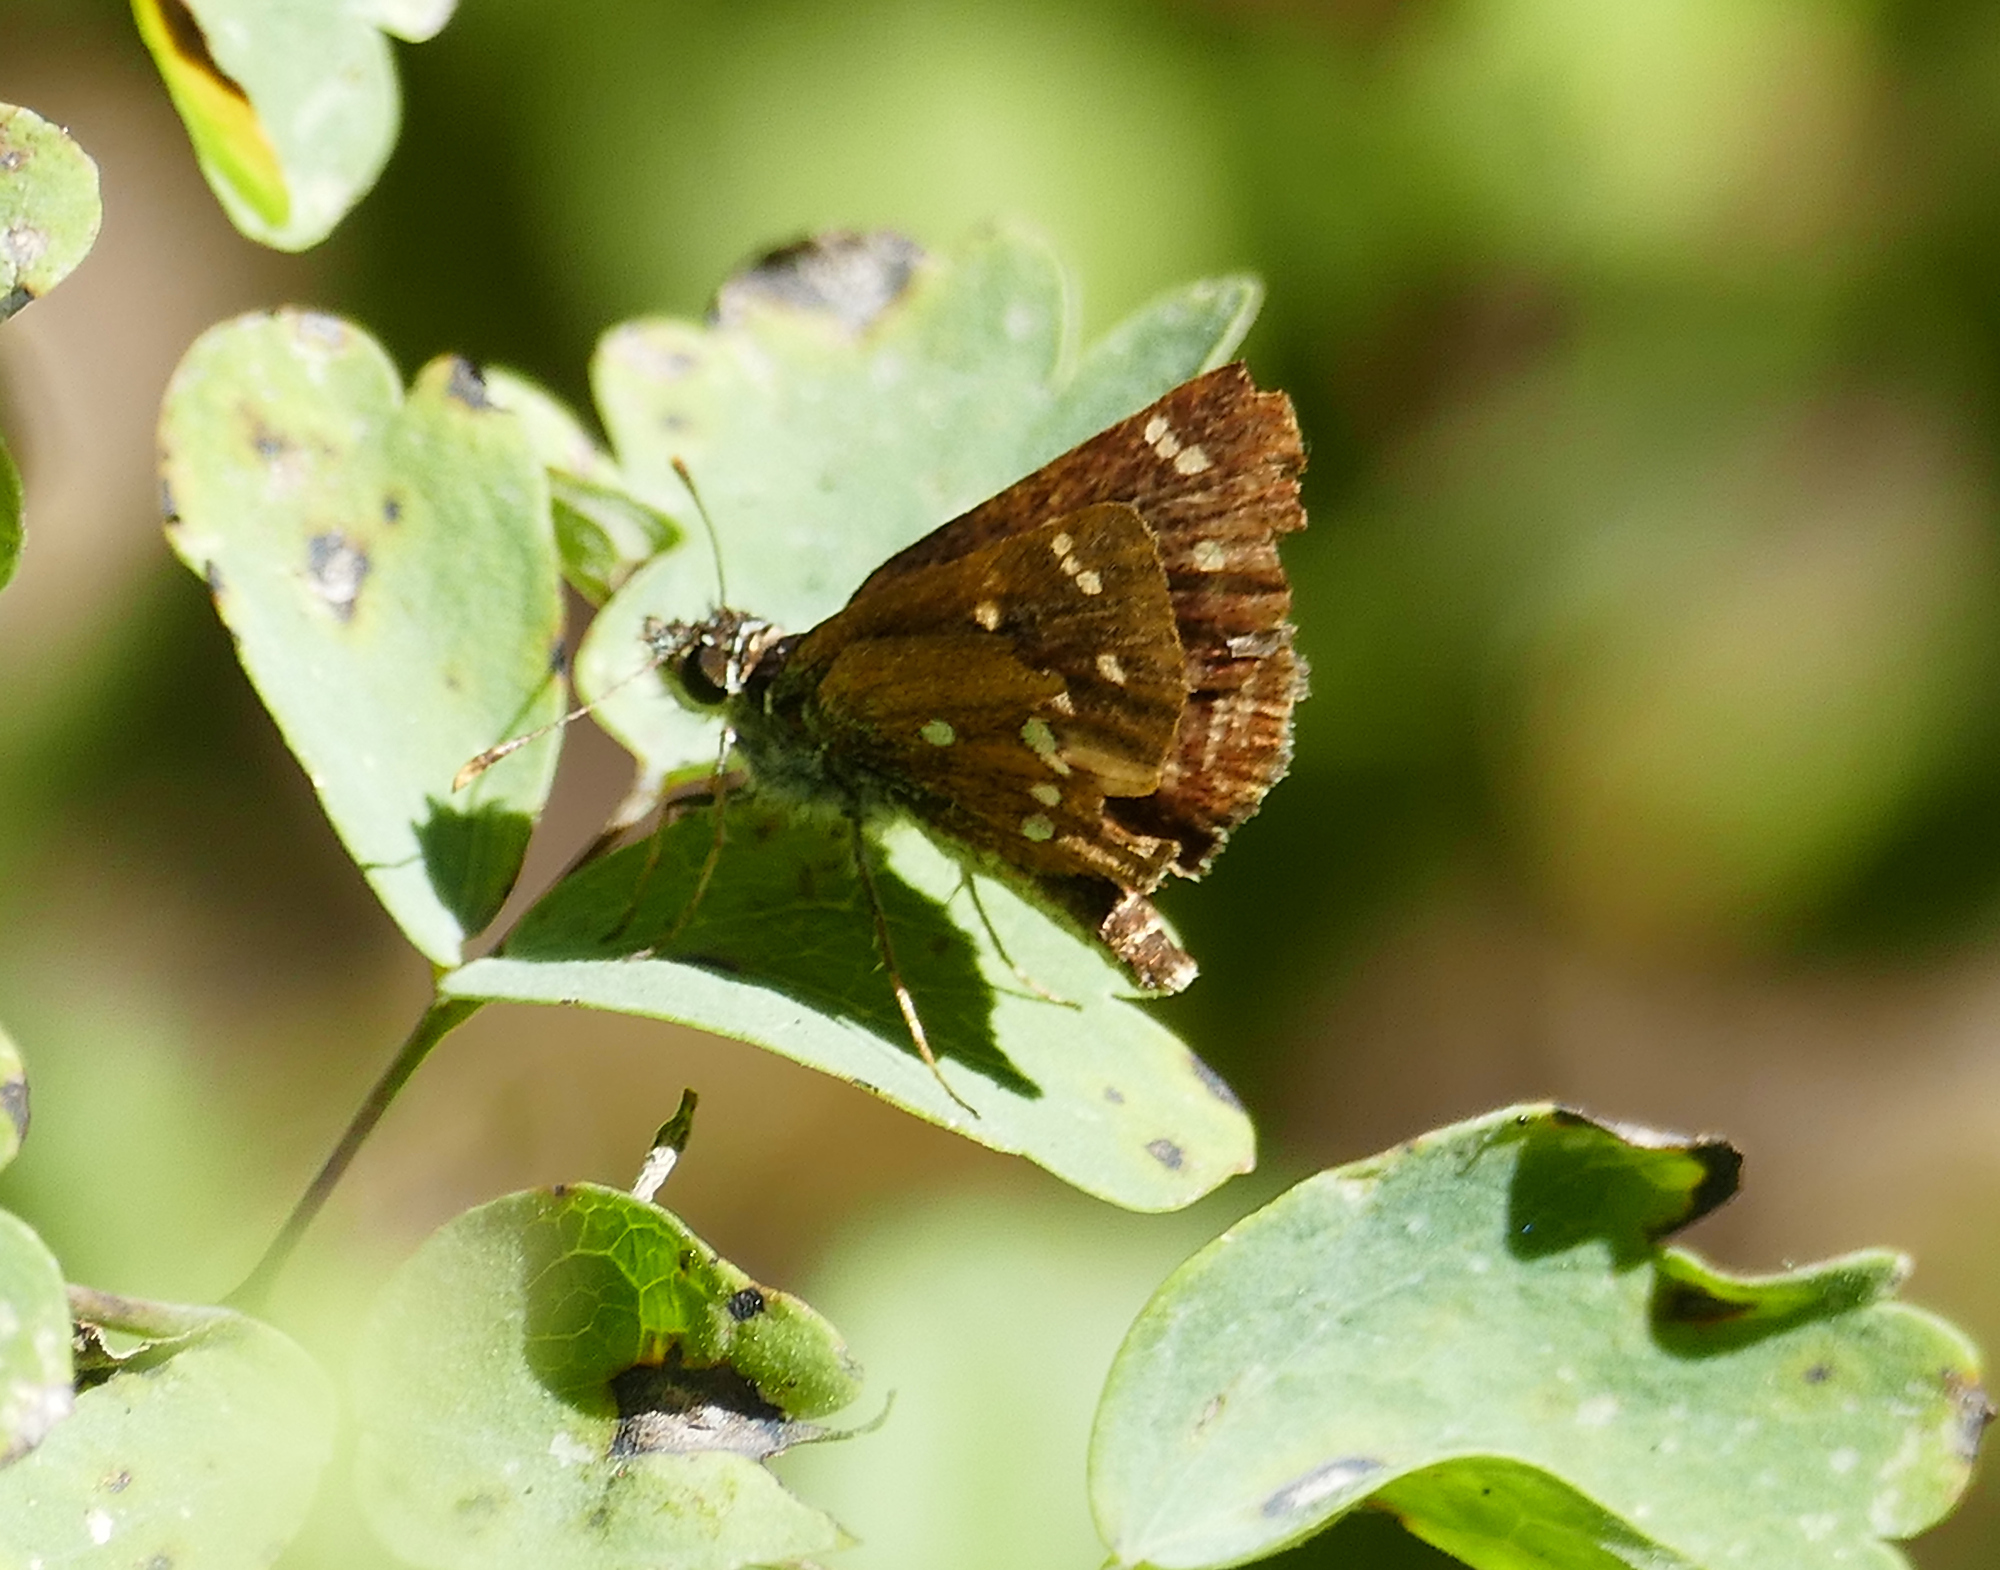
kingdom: Animalia
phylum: Arthropoda
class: Insecta
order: Lepidoptera
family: Hesperiidae
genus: Piruna
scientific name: Piruna polingii
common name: Four-spotted skipperling
